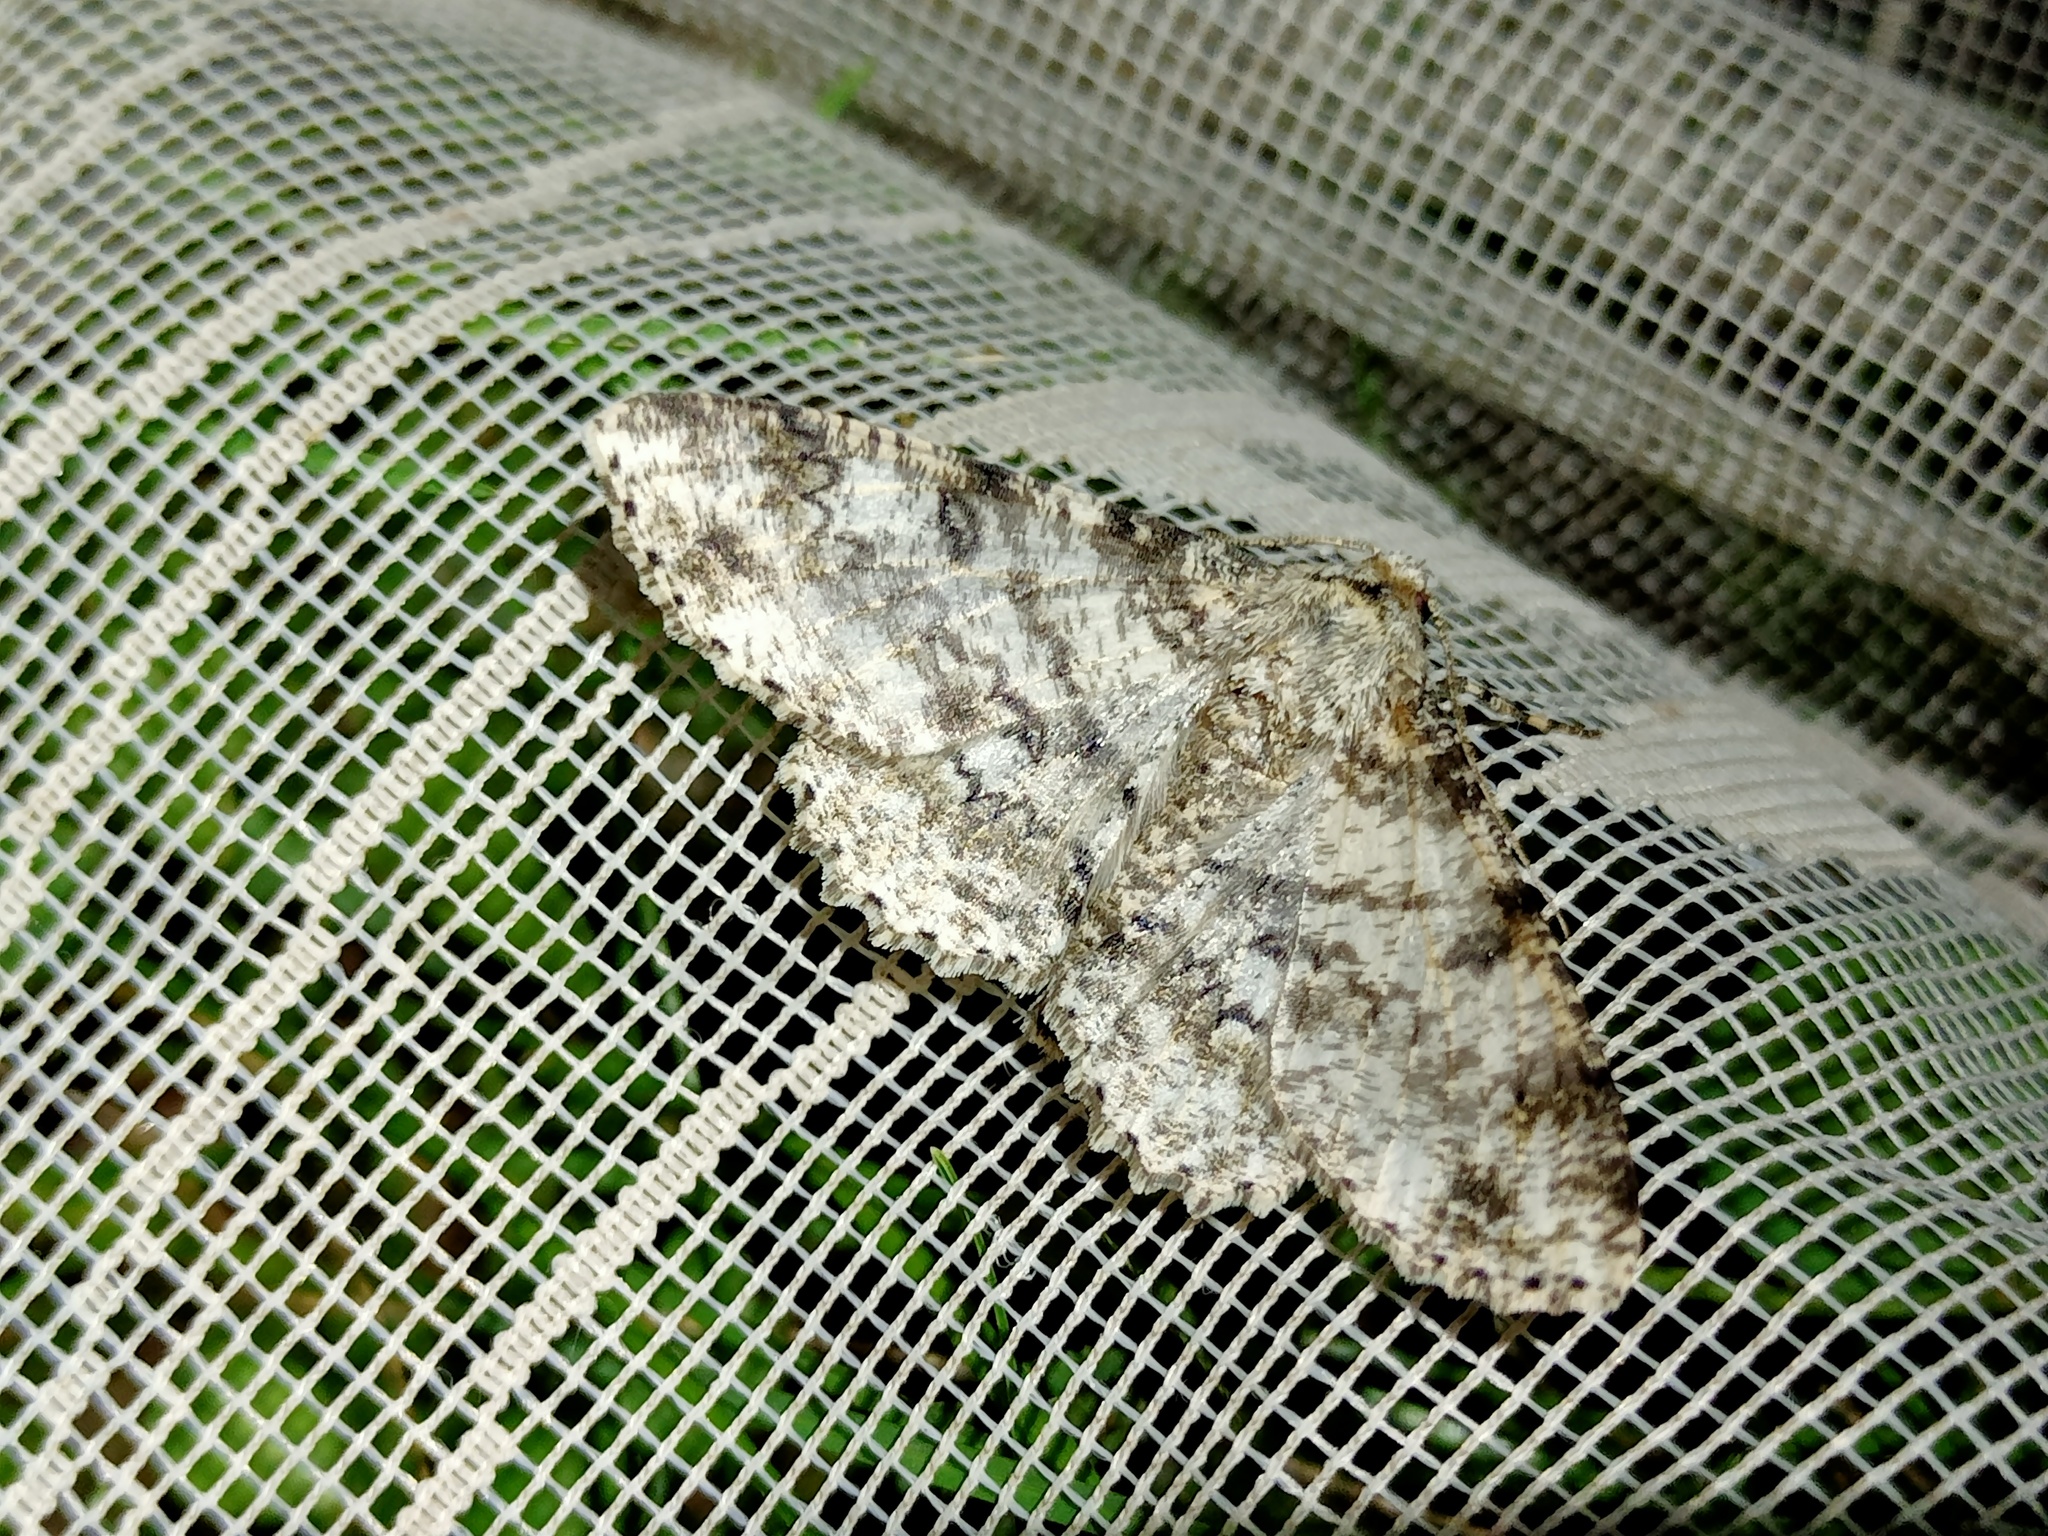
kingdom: Animalia
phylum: Arthropoda
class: Insecta
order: Lepidoptera
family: Geometridae
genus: Ascotis
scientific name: Ascotis selenaria
